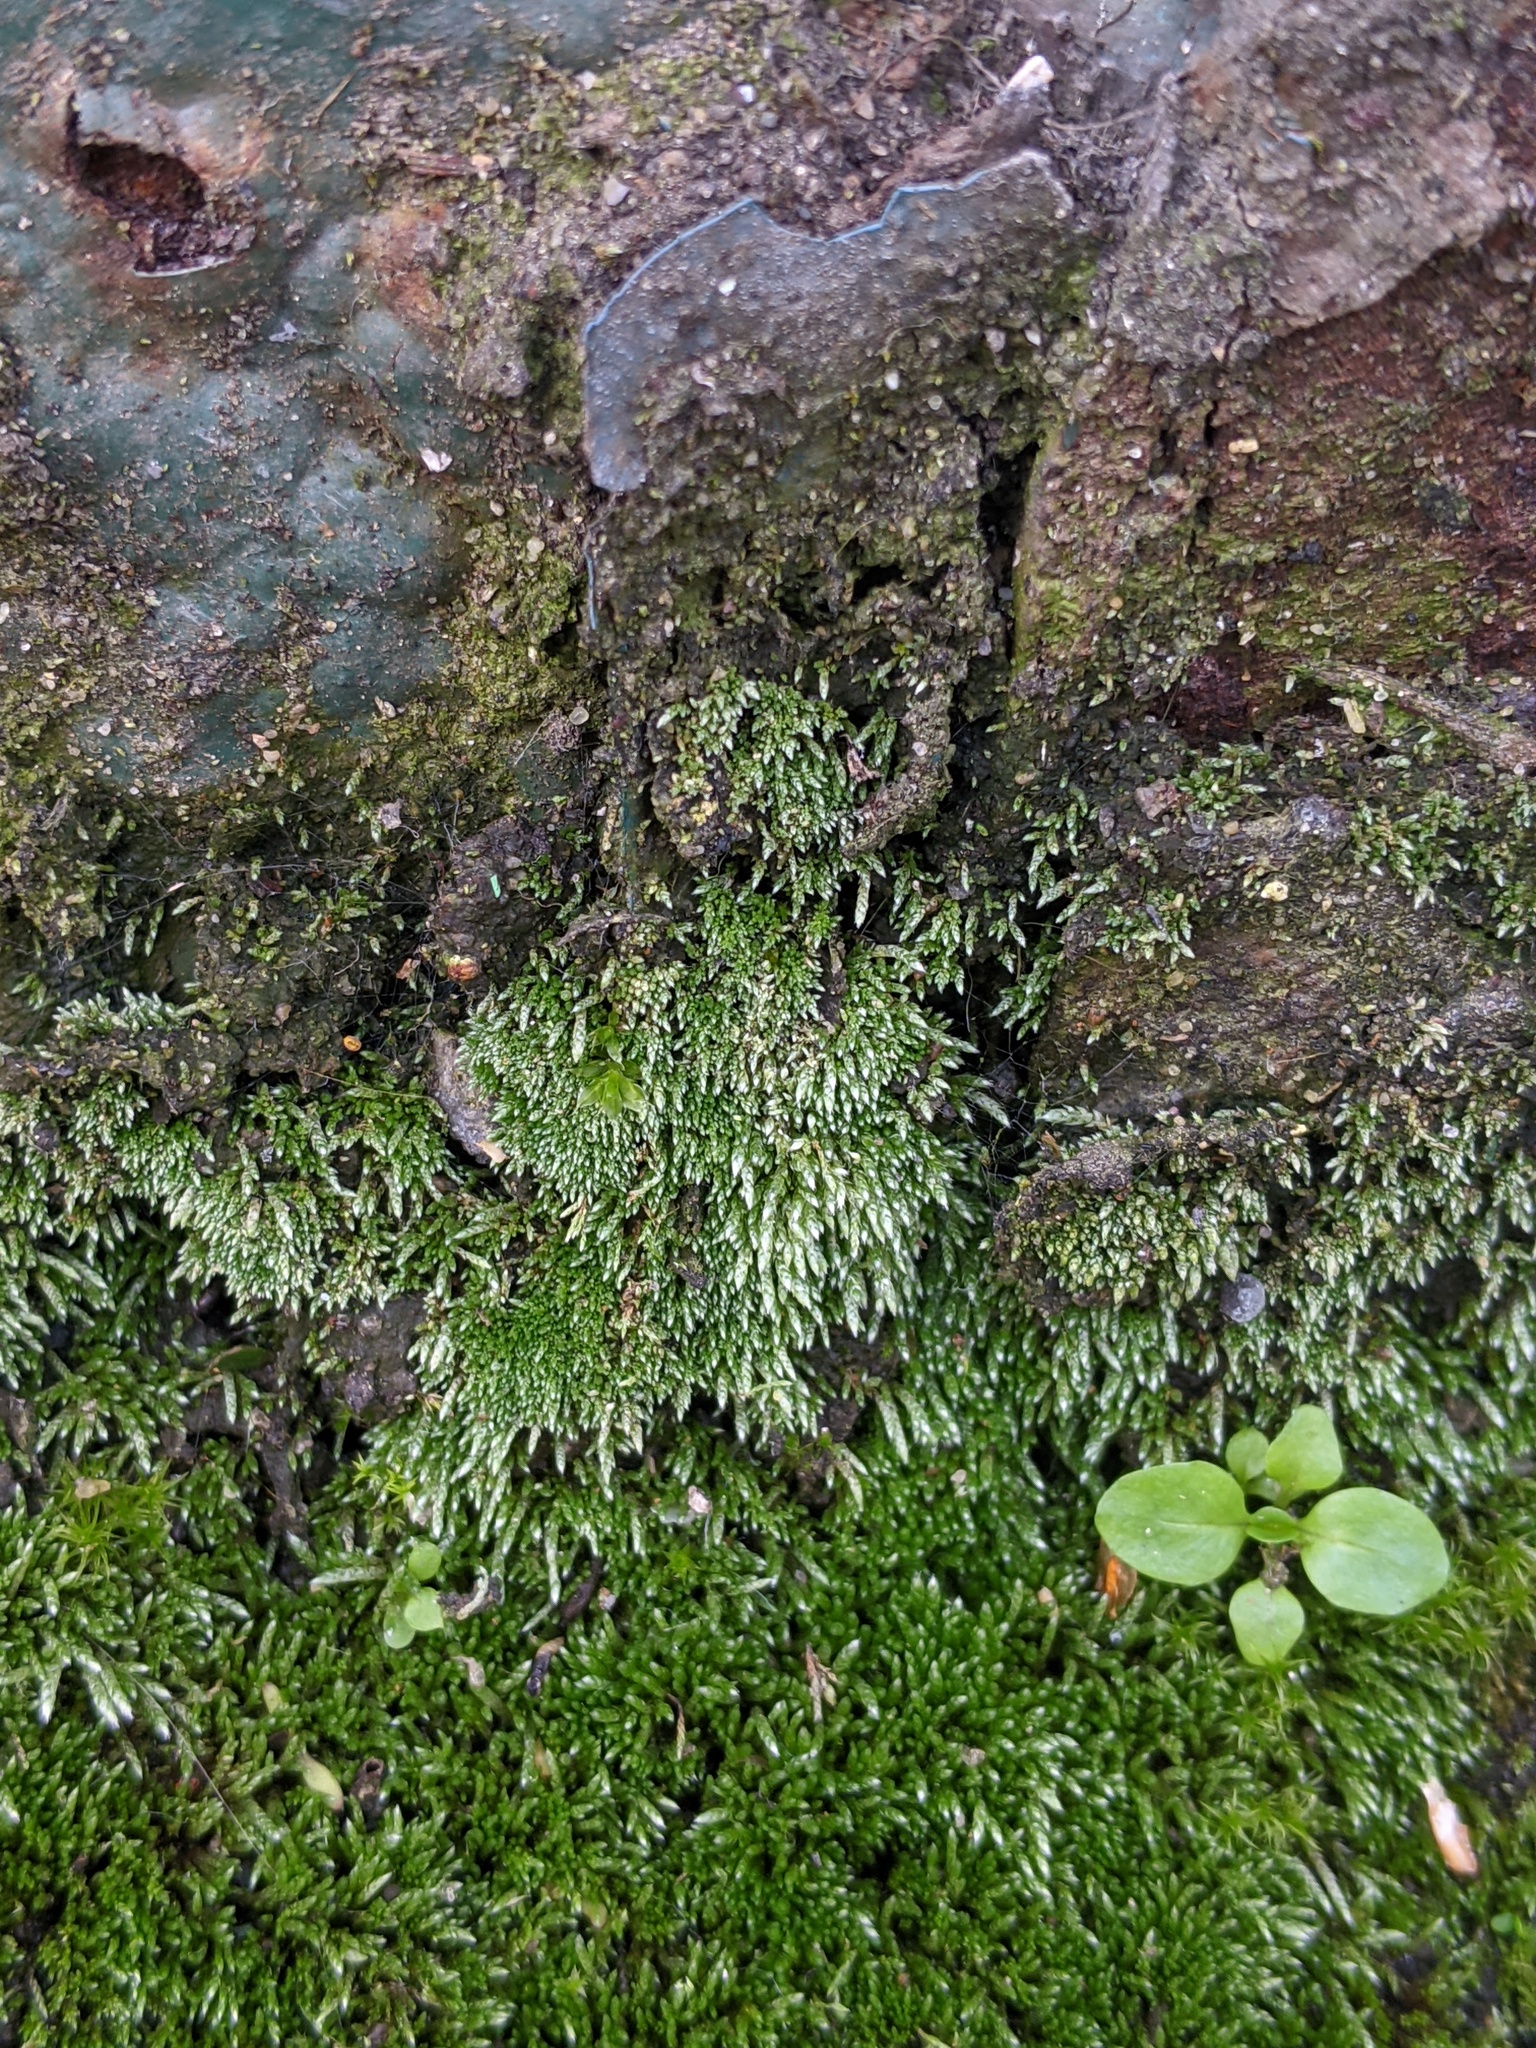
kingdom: Plantae
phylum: Bryophyta
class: Bryopsida
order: Bryales
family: Bryaceae
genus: Bryum
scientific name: Bryum argenteum
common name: Silver-moss
